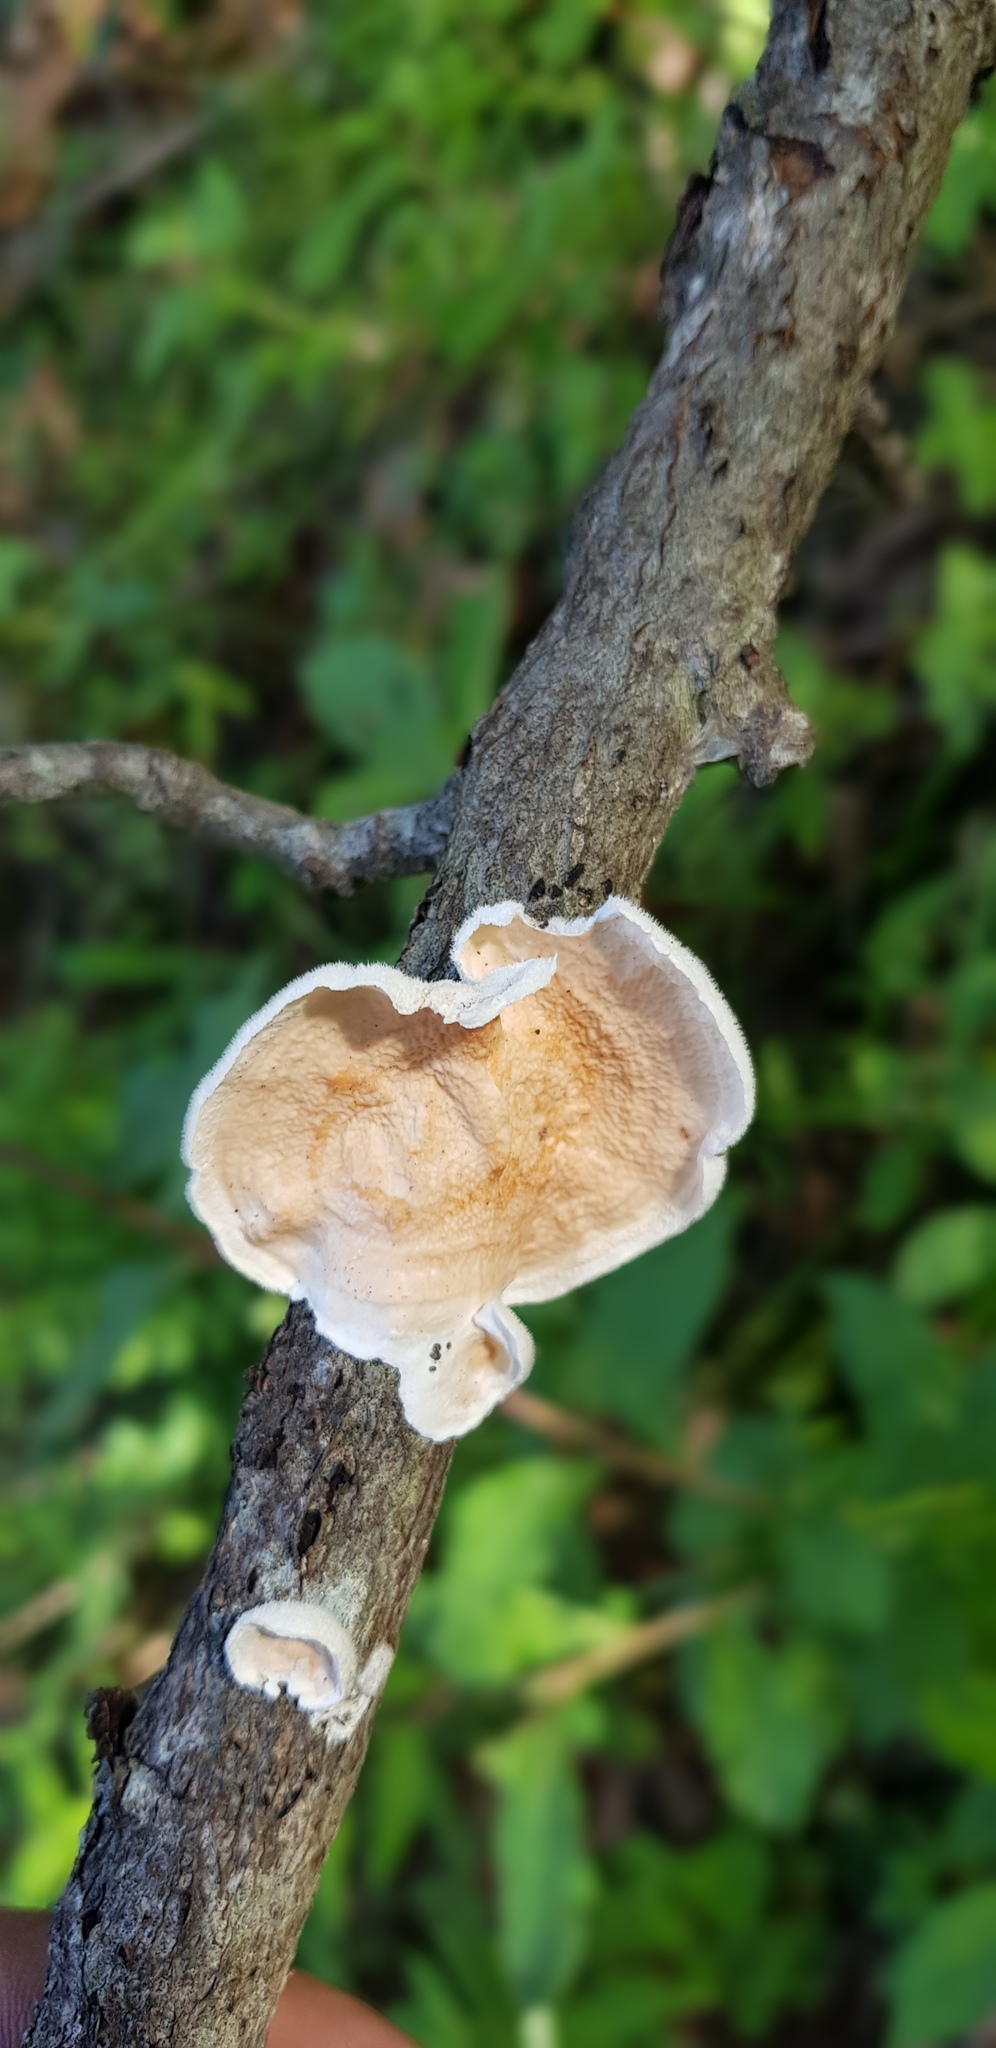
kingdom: Fungi
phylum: Basidiomycota
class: Agaricomycetes
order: Polyporales
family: Irpicaceae
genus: Byssomerulius
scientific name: Byssomerulius corium
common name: Netted crust
